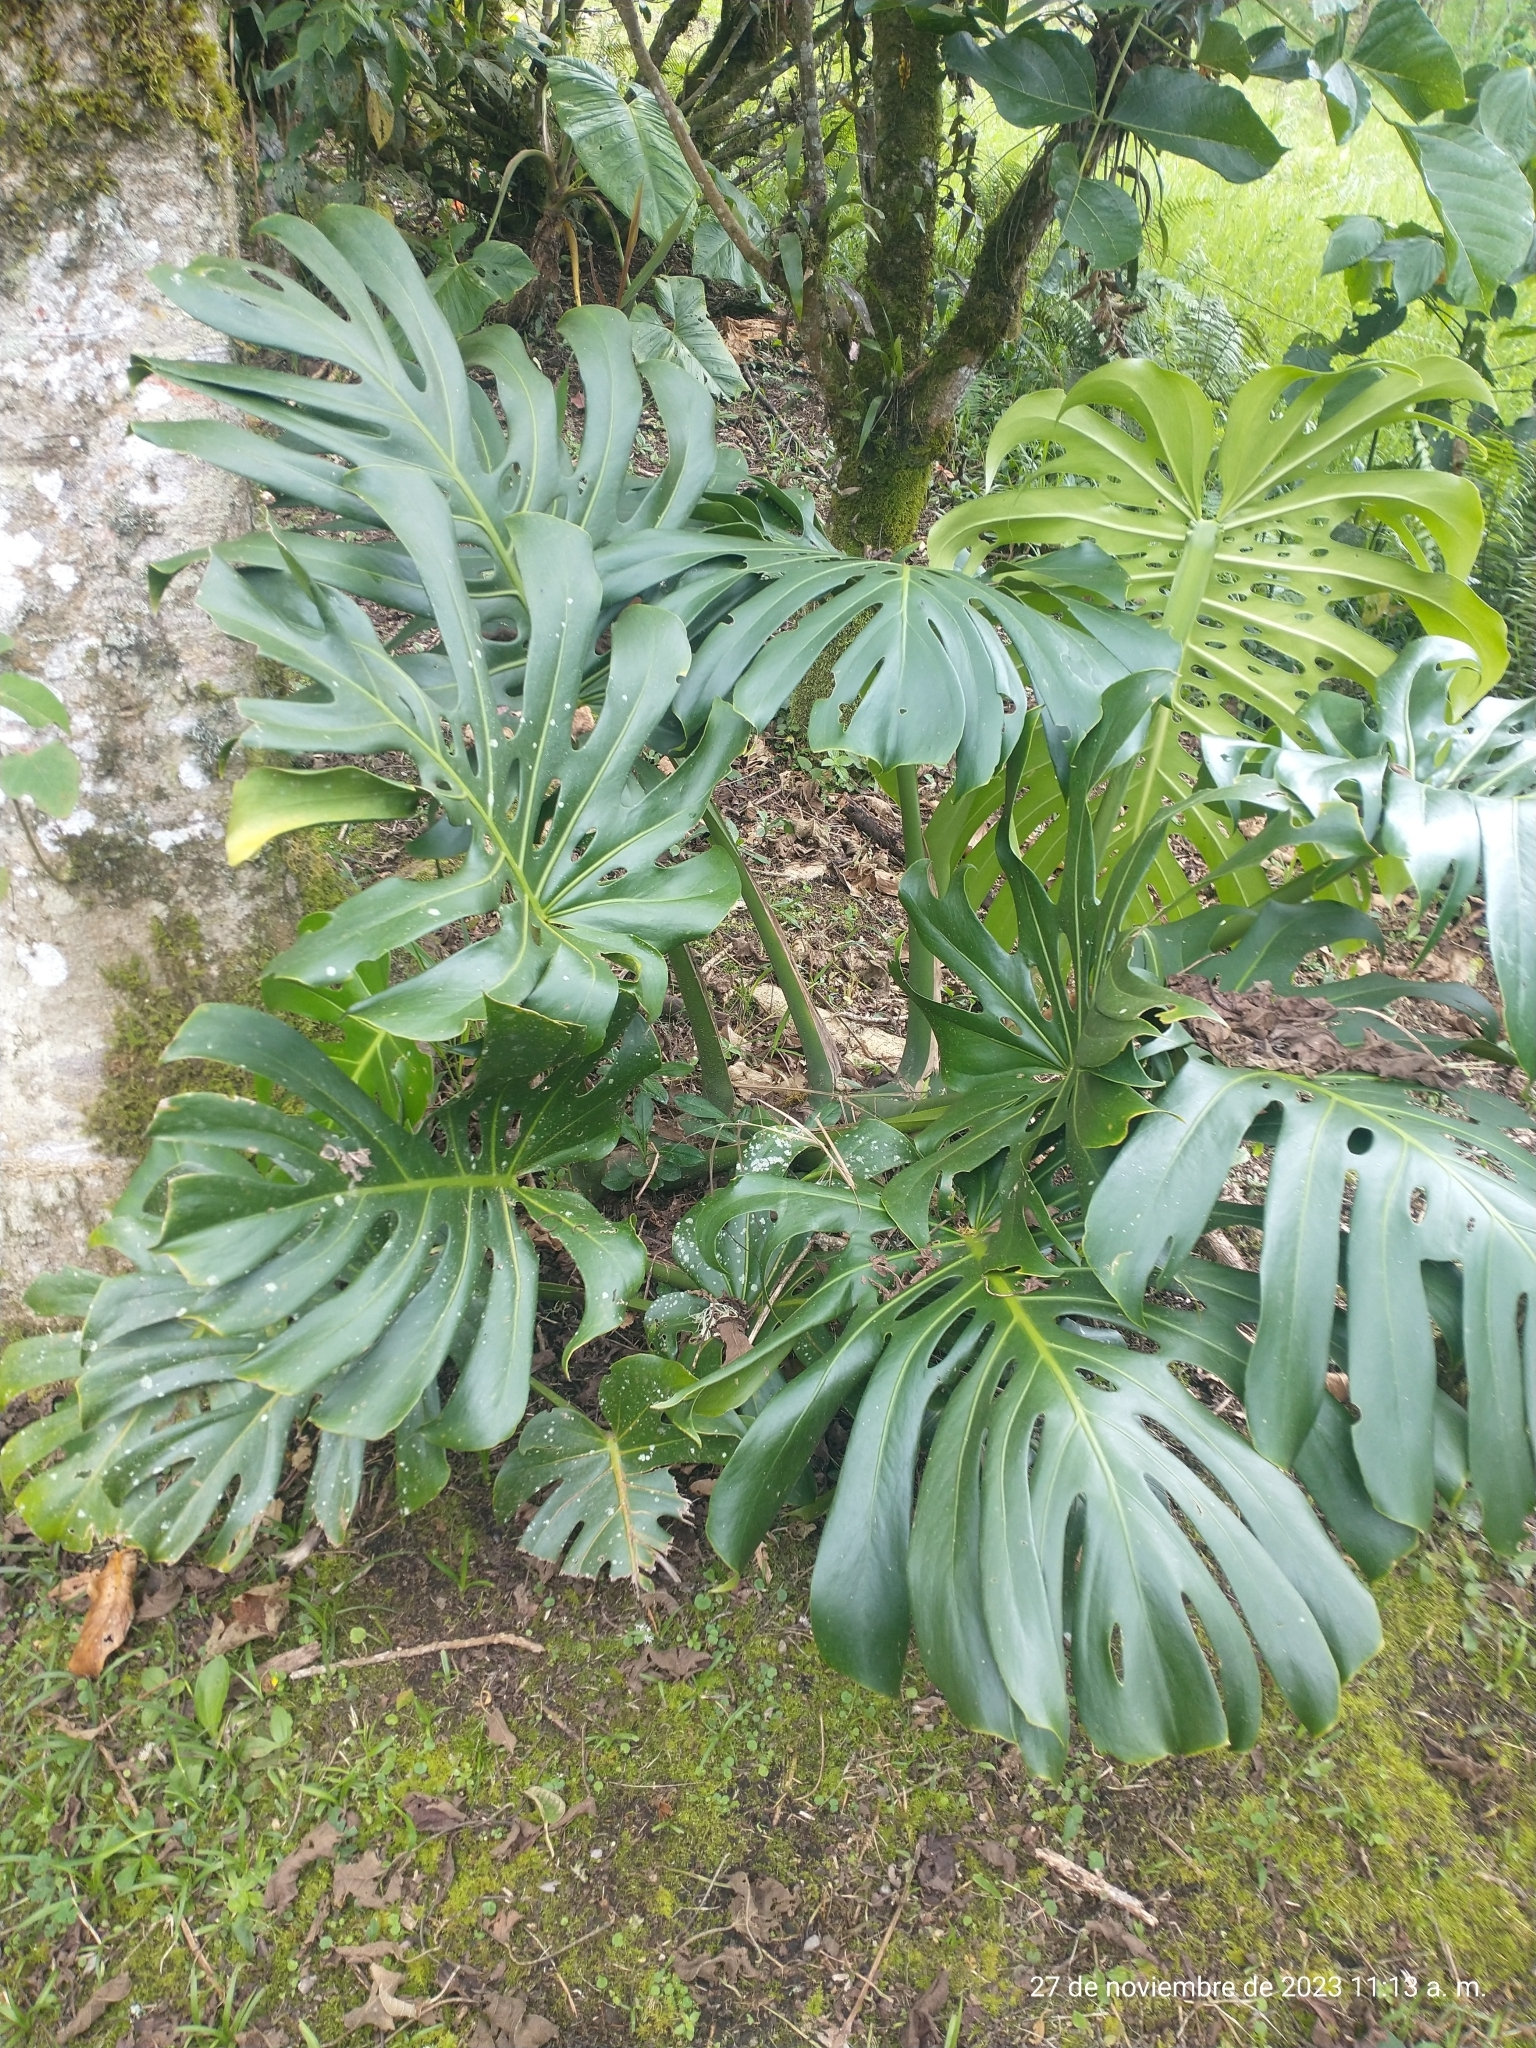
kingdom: Plantae
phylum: Tracheophyta
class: Liliopsida
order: Alismatales
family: Araceae
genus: Monstera
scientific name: Monstera deliciosa
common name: Cut-leaf-philodendron
